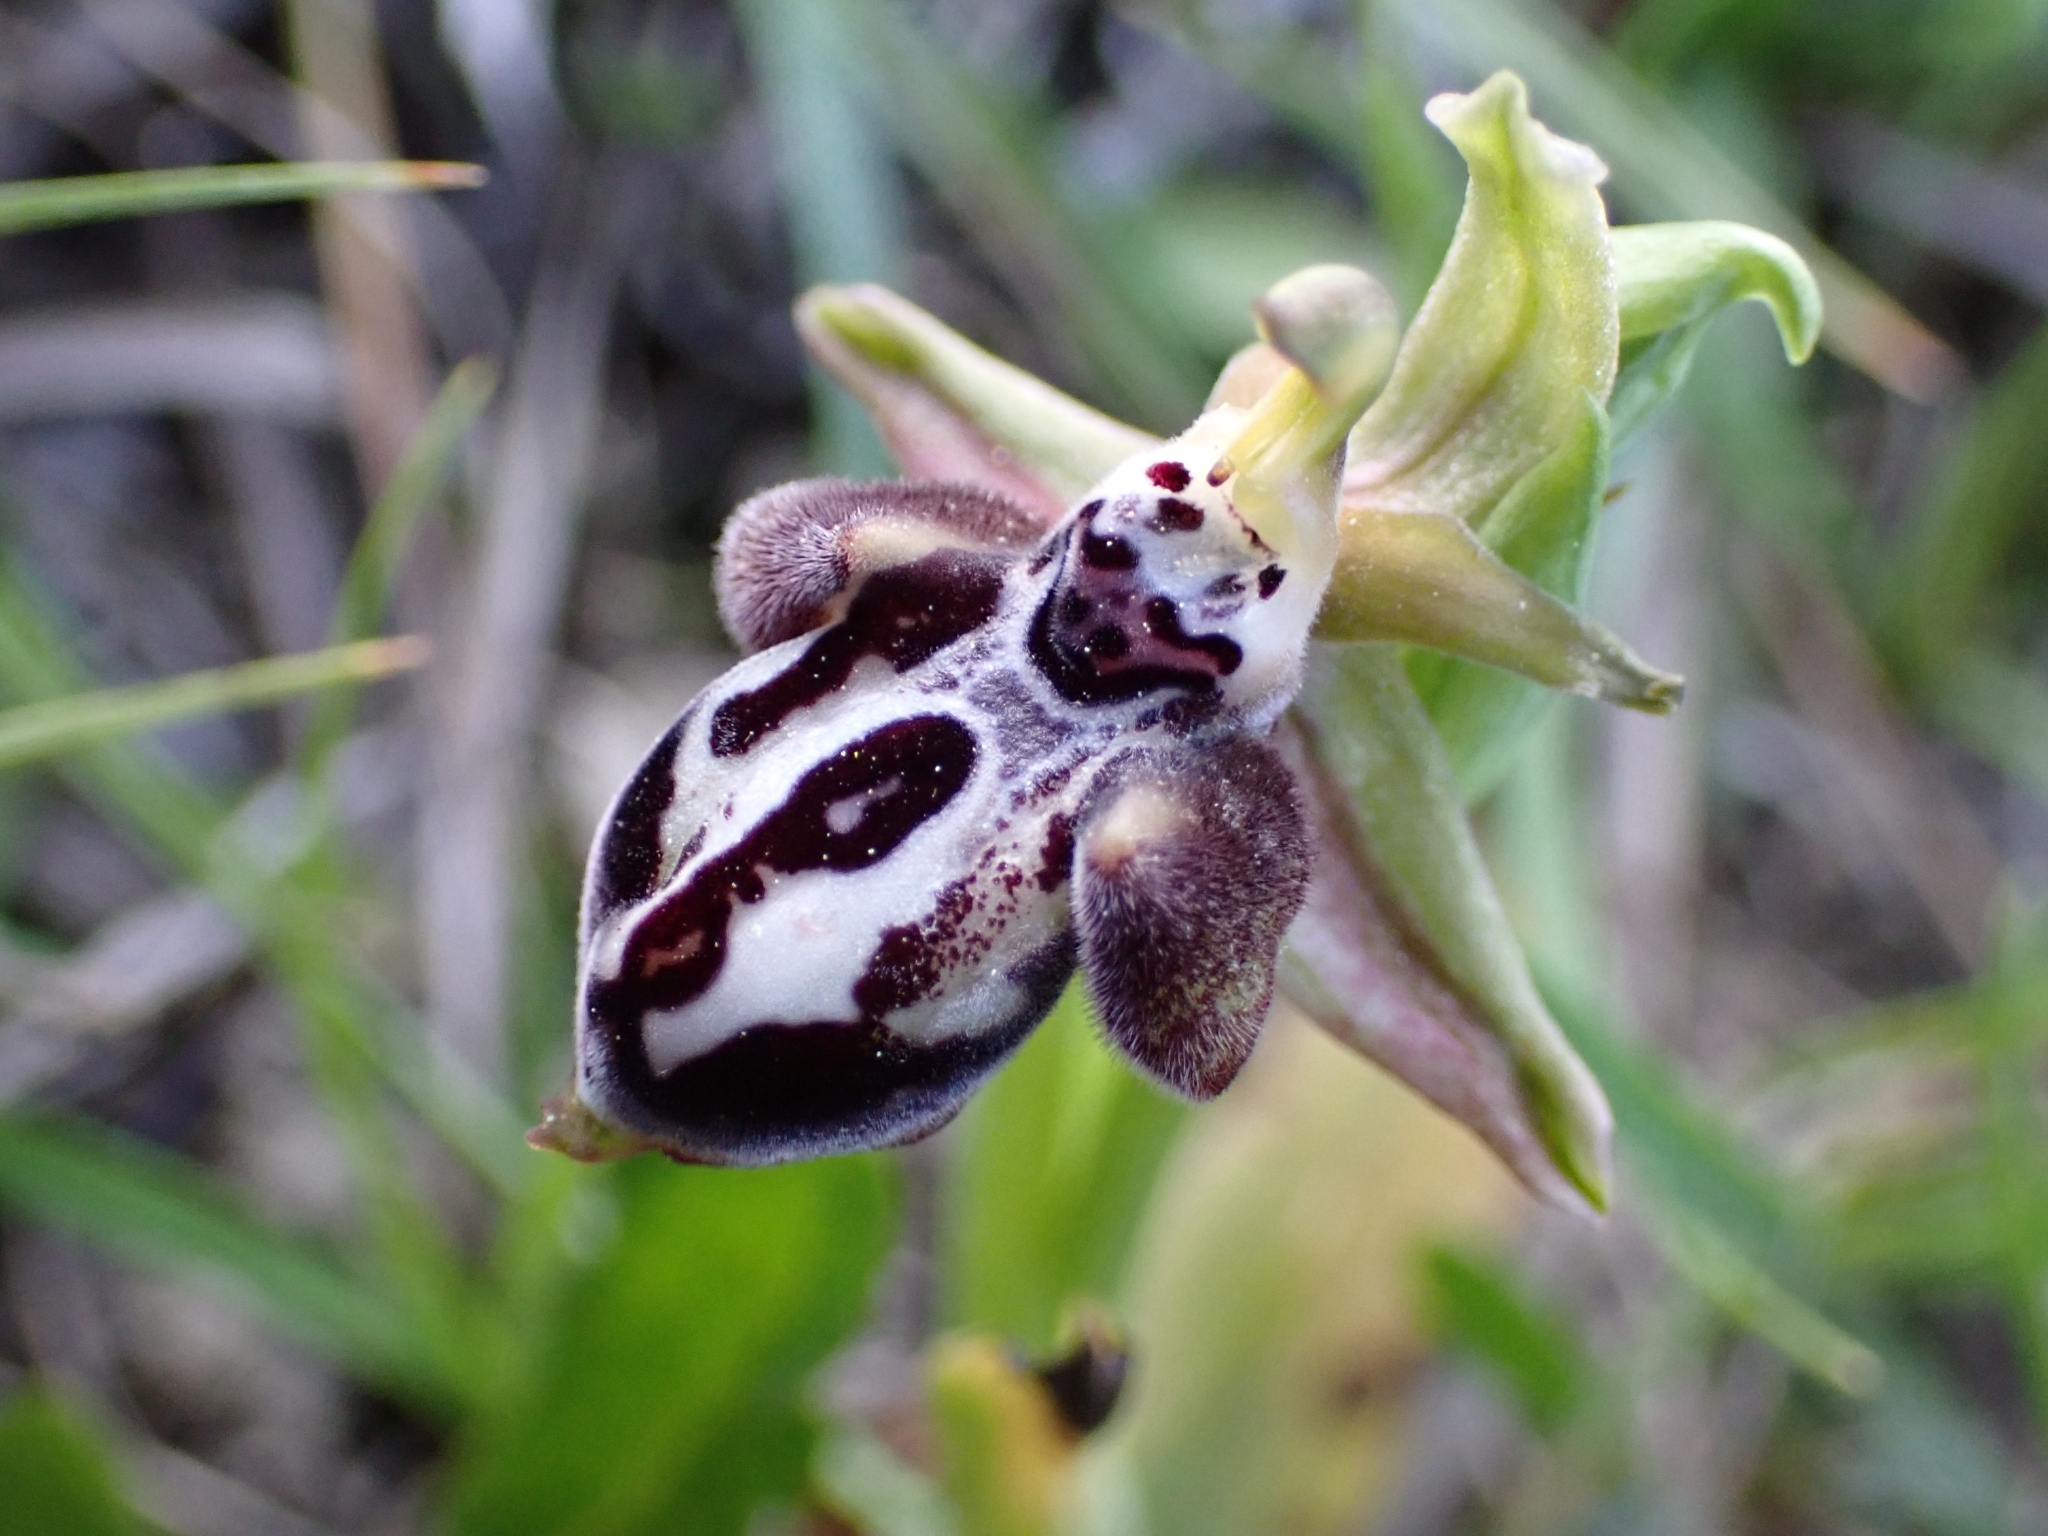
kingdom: Plantae
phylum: Tracheophyta
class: Liliopsida
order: Asparagales
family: Orchidaceae
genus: Ophrys
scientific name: Ophrys cretica
